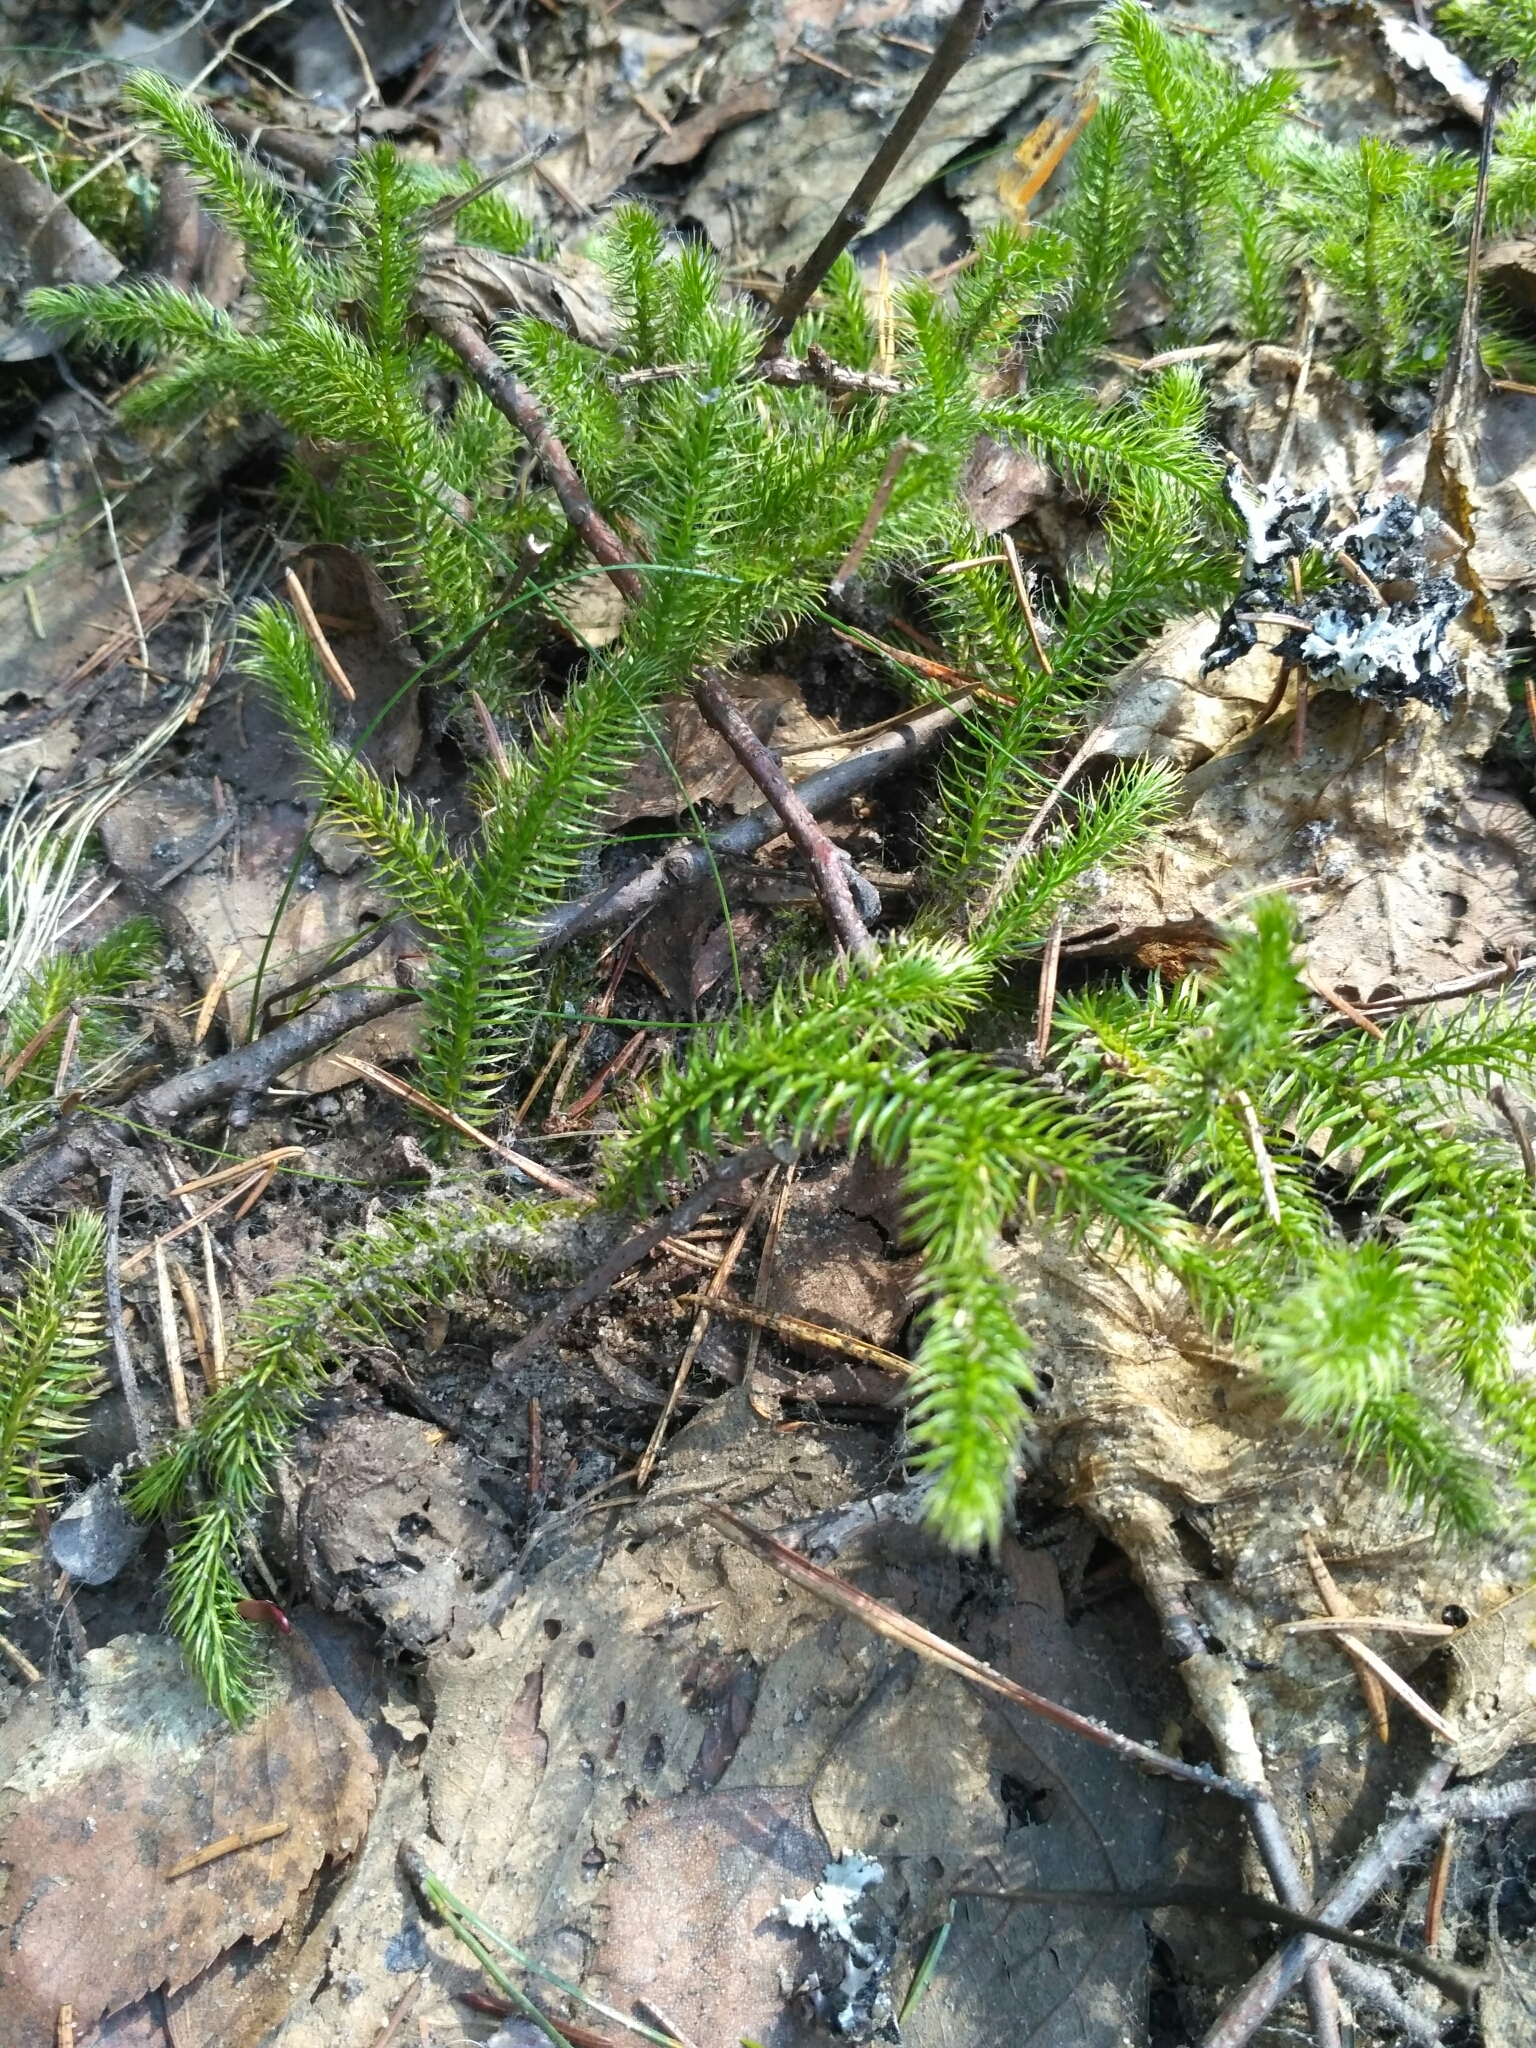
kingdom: Plantae
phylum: Tracheophyta
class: Lycopodiopsida
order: Lycopodiales
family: Lycopodiaceae
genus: Lycopodium
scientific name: Lycopodium clavatum
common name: Stag's-horn clubmoss
